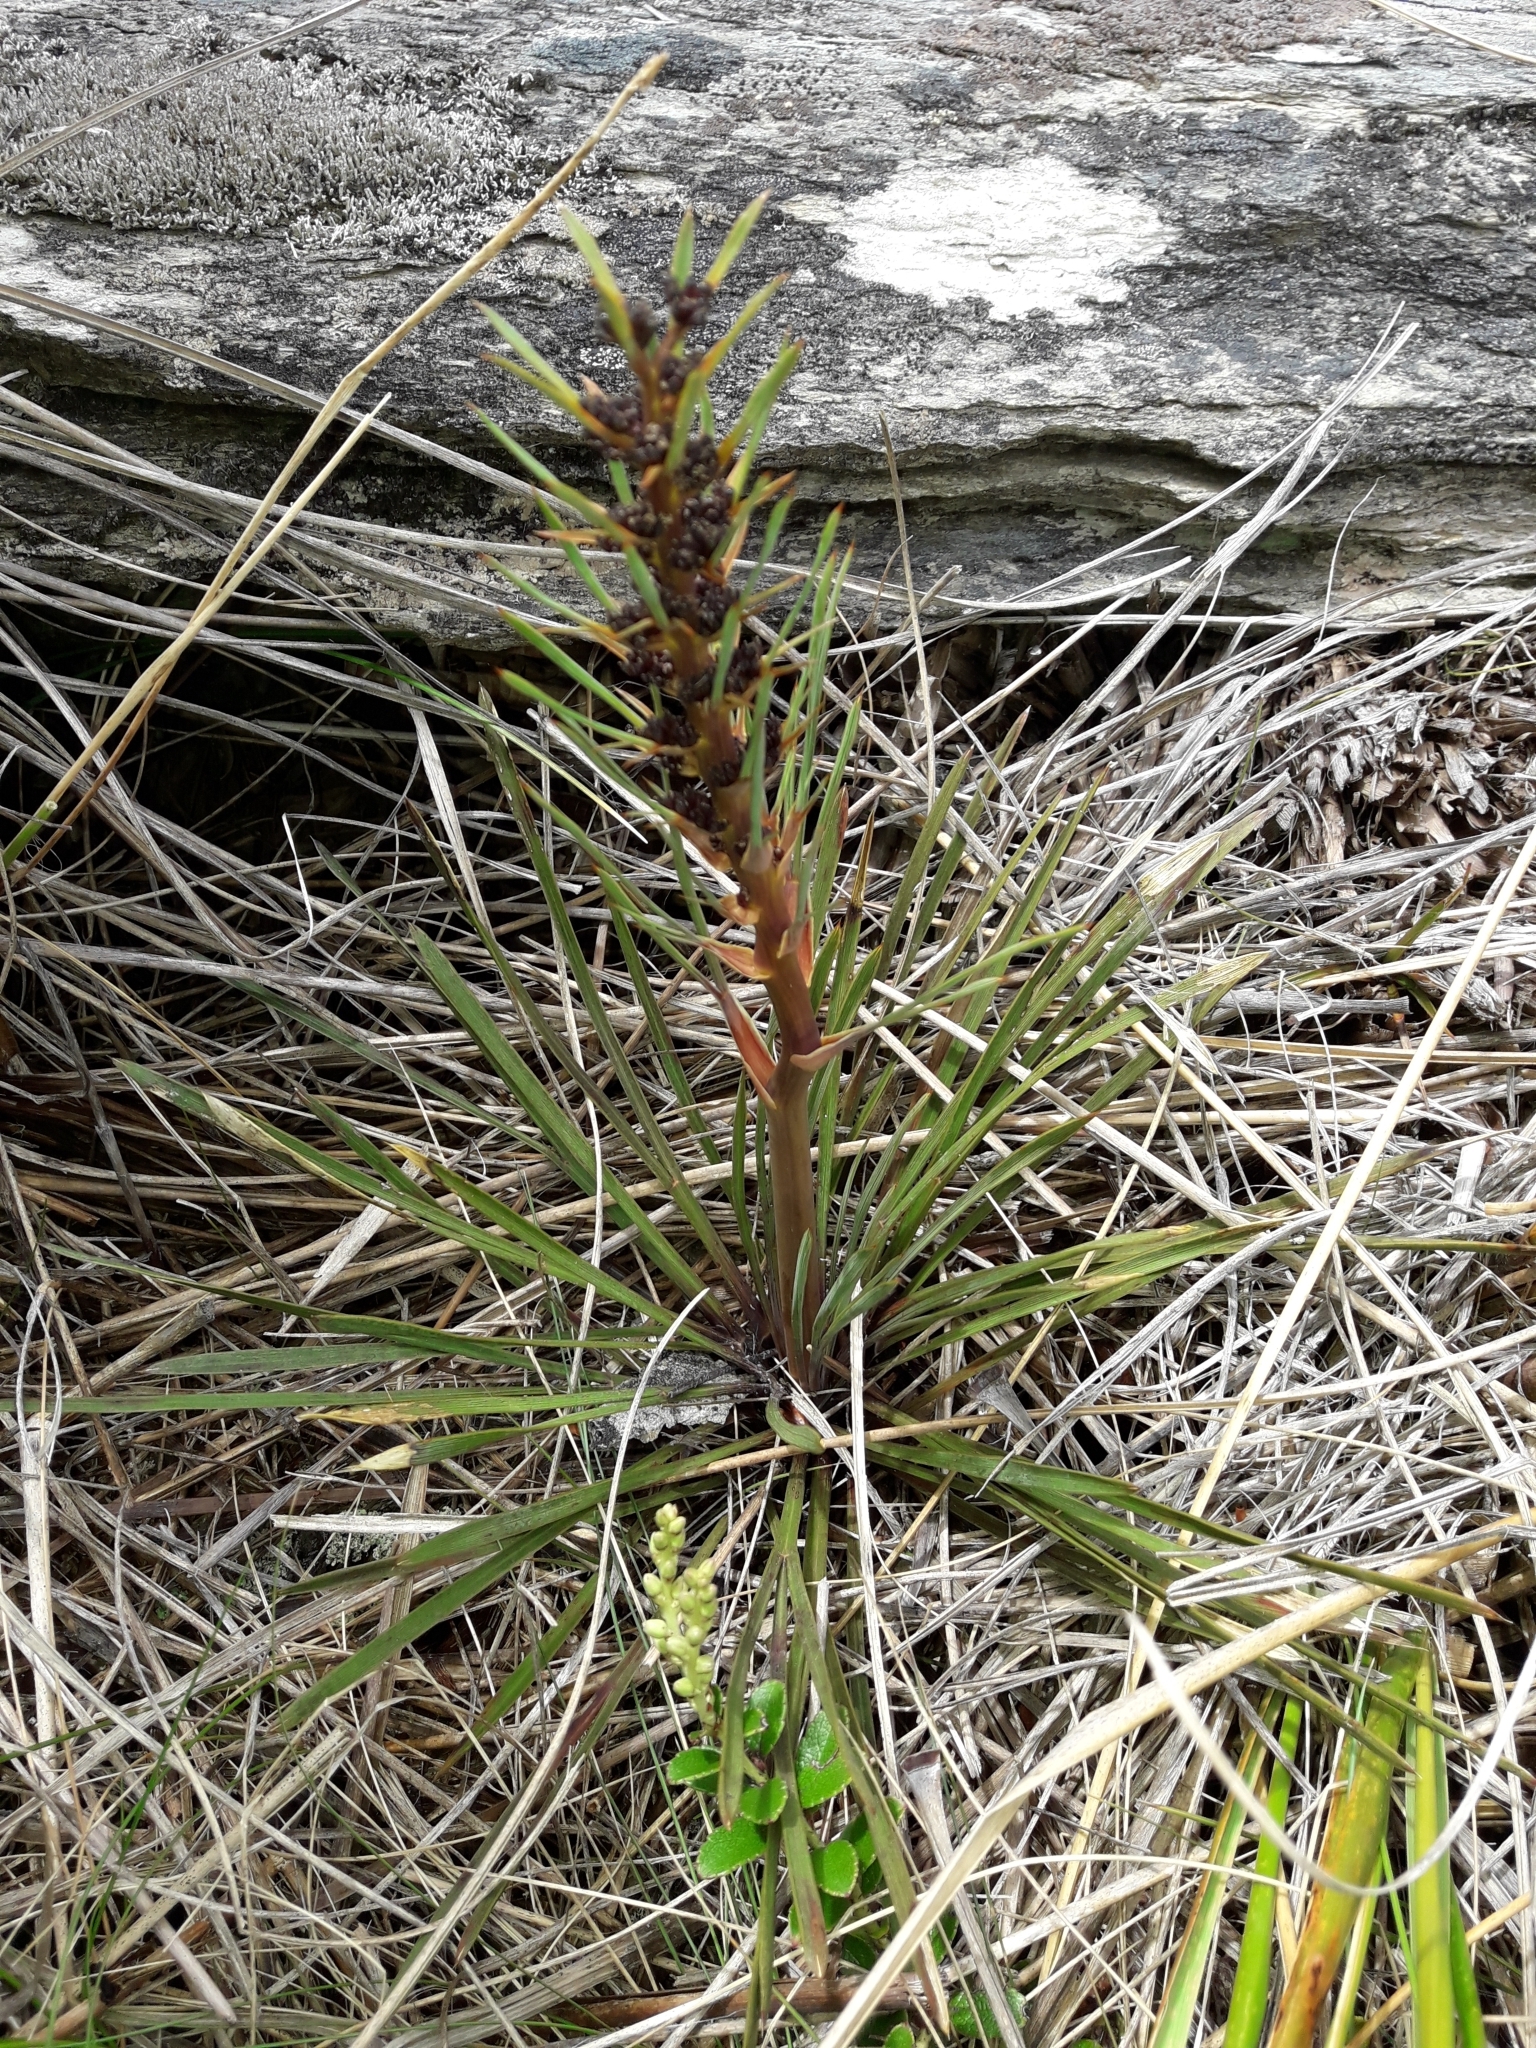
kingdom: Plantae
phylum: Tracheophyta
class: Magnoliopsida
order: Apiales
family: Apiaceae
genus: Aciphylla
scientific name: Aciphylla verticillata
